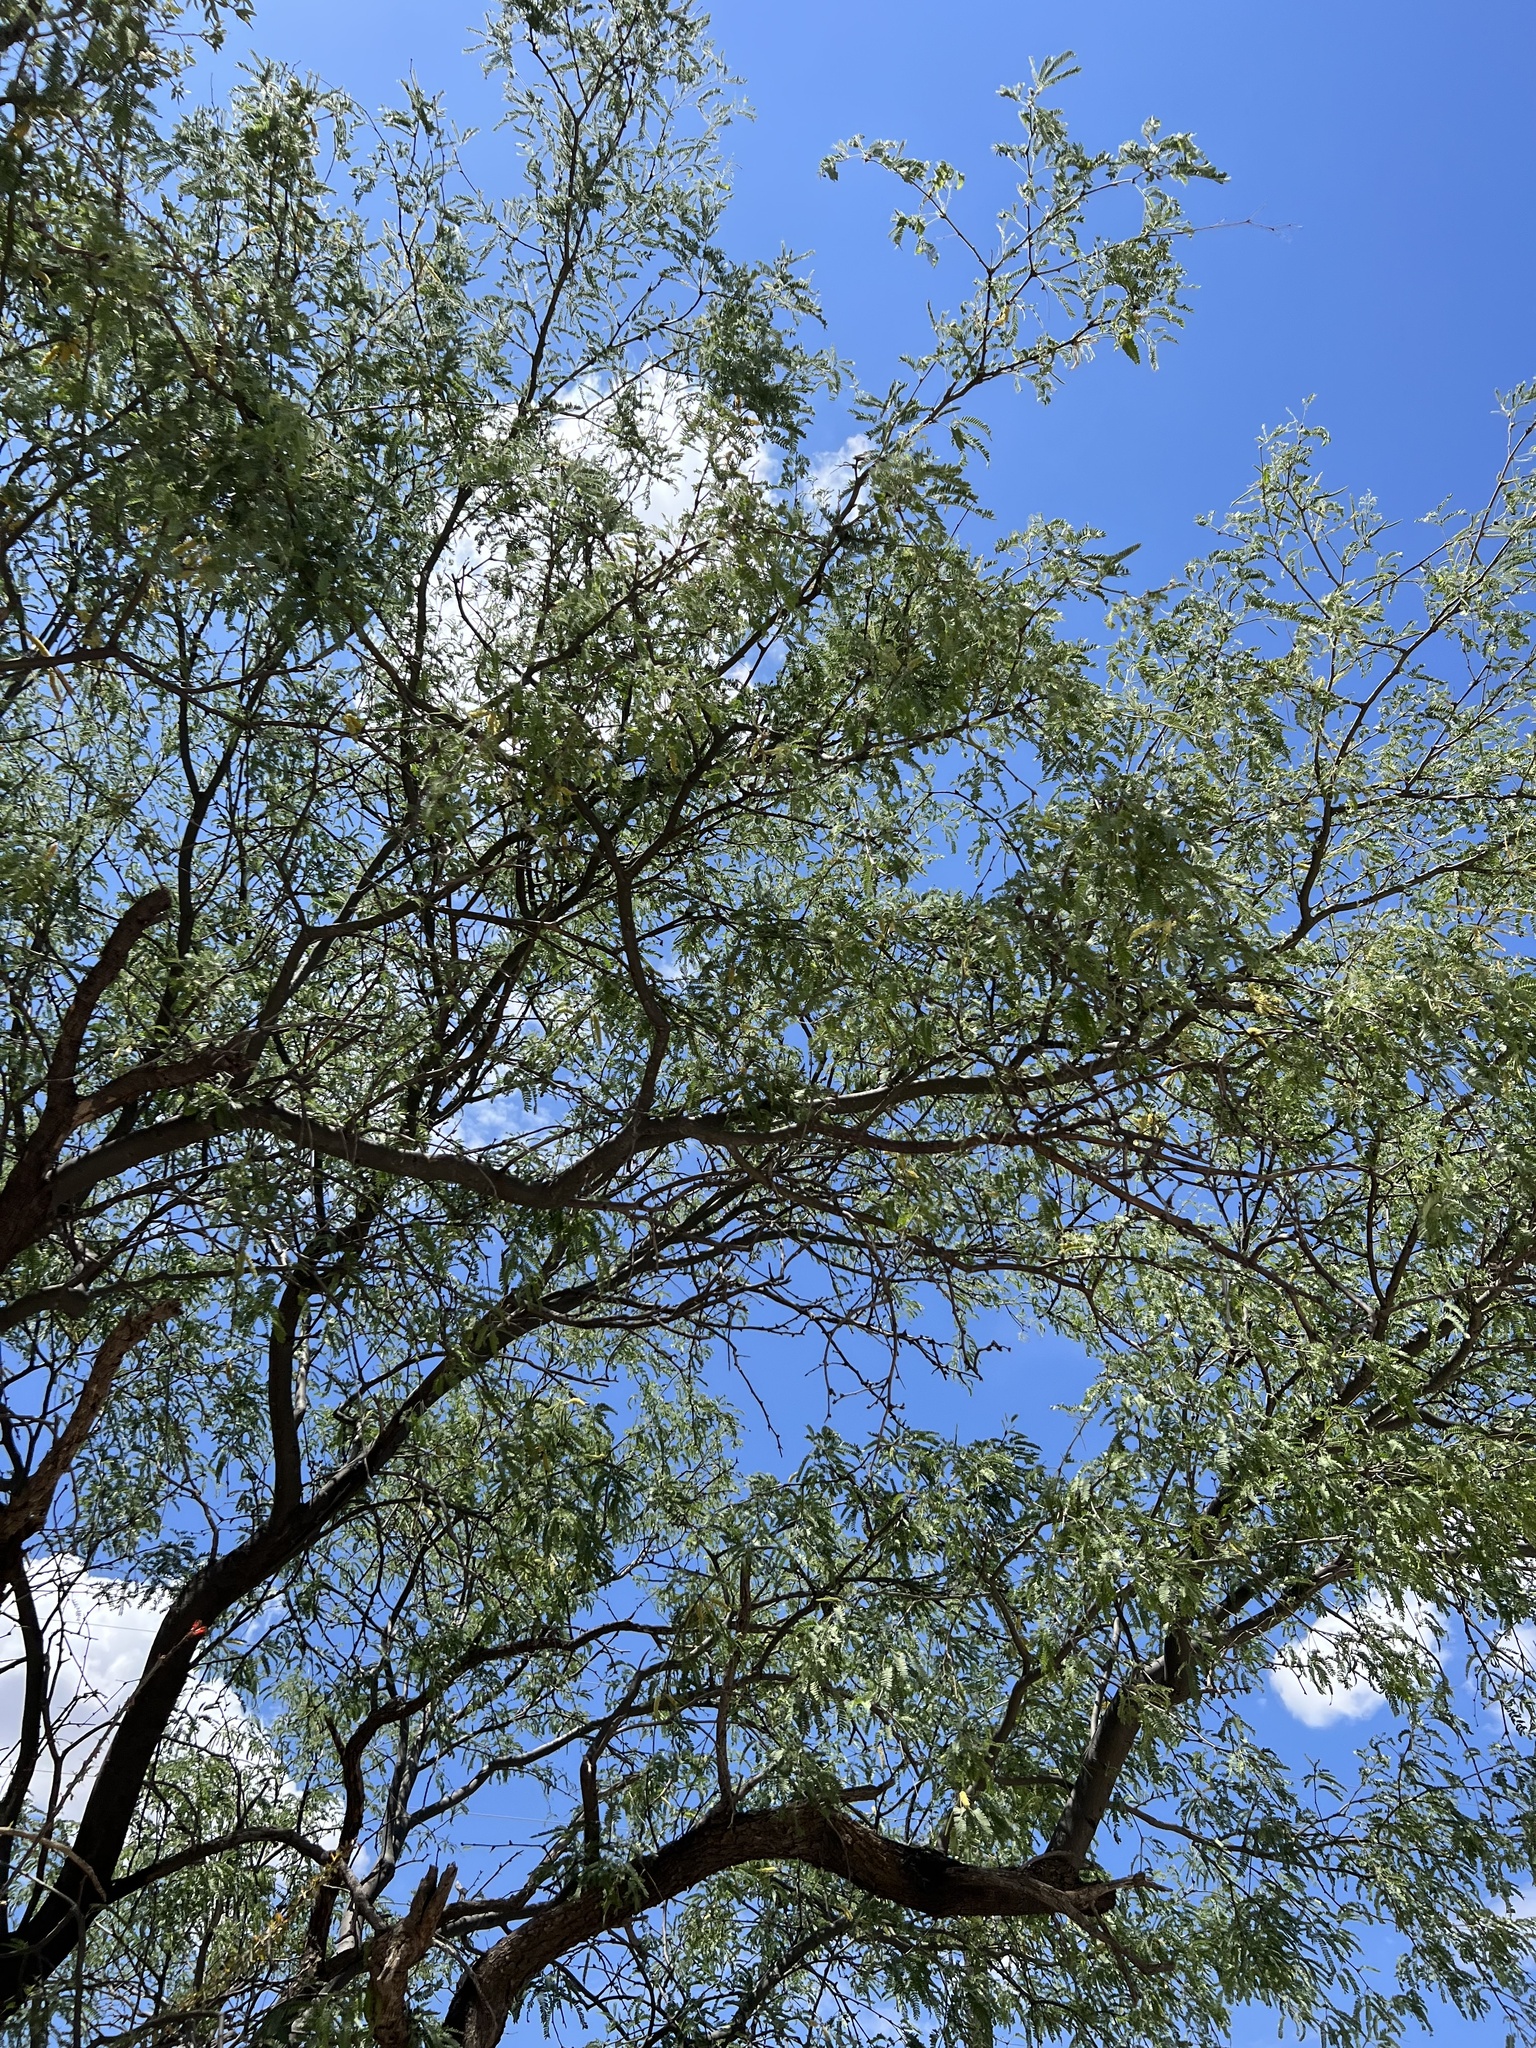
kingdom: Plantae
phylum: Tracheophyta
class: Magnoliopsida
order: Fabales
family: Fabaceae
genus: Prosopis
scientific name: Prosopis velutina
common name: Velvet mesquite
